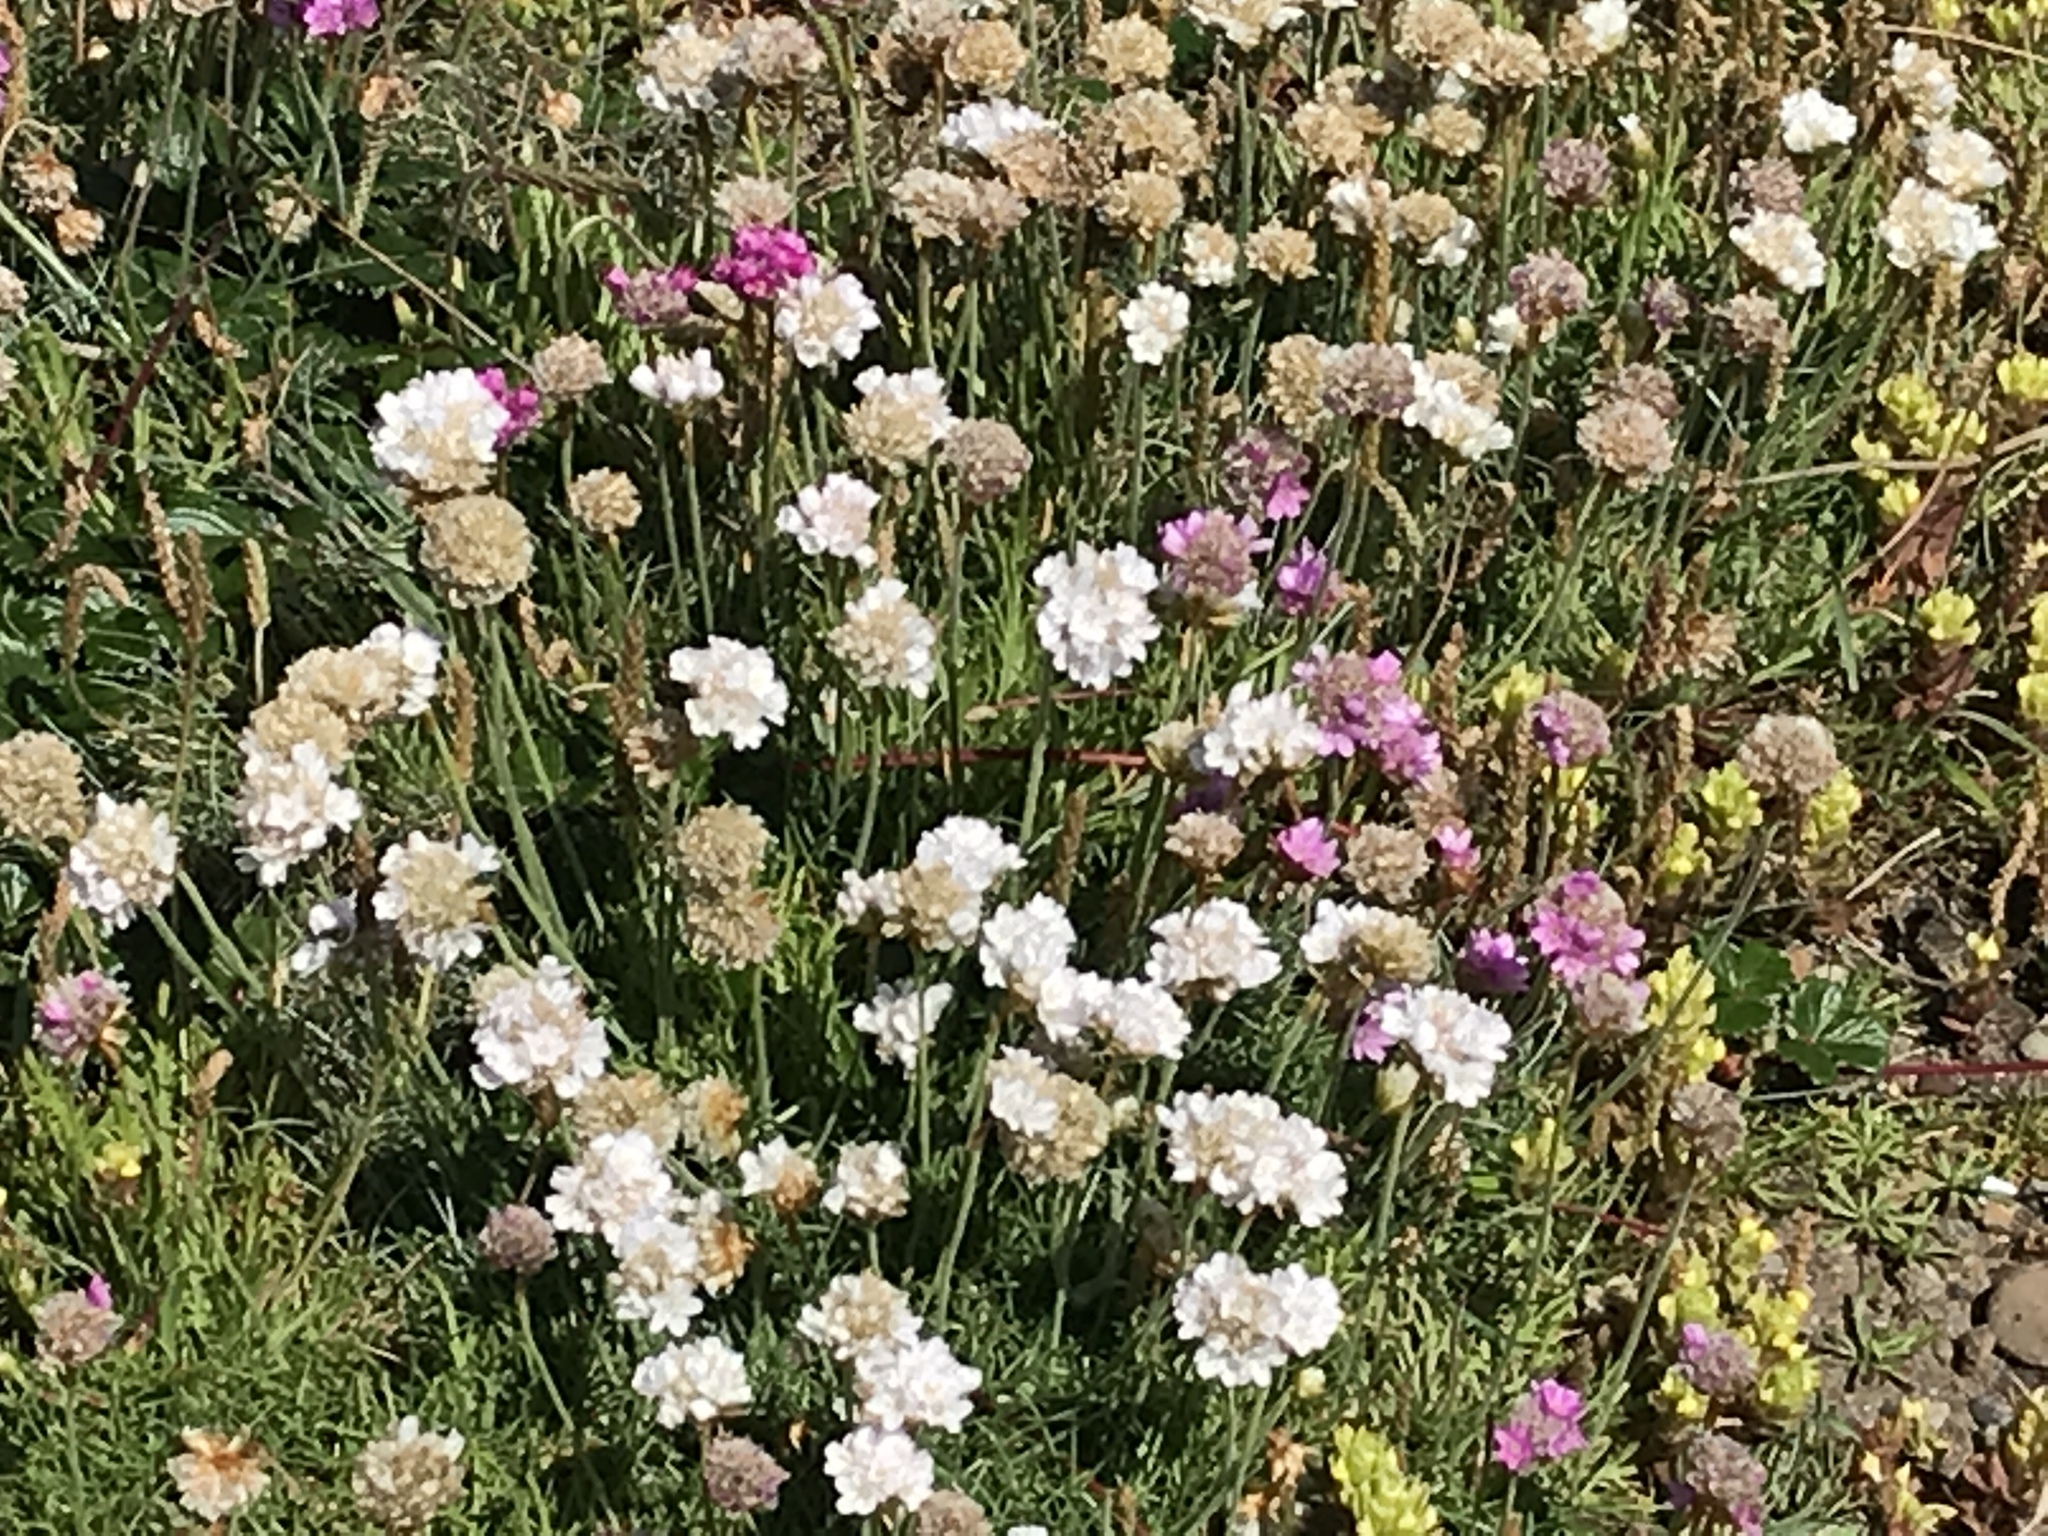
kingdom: Plantae
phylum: Tracheophyta
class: Magnoliopsida
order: Caryophyllales
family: Plumbaginaceae
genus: Armeria
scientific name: Armeria maritima
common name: Thrift
